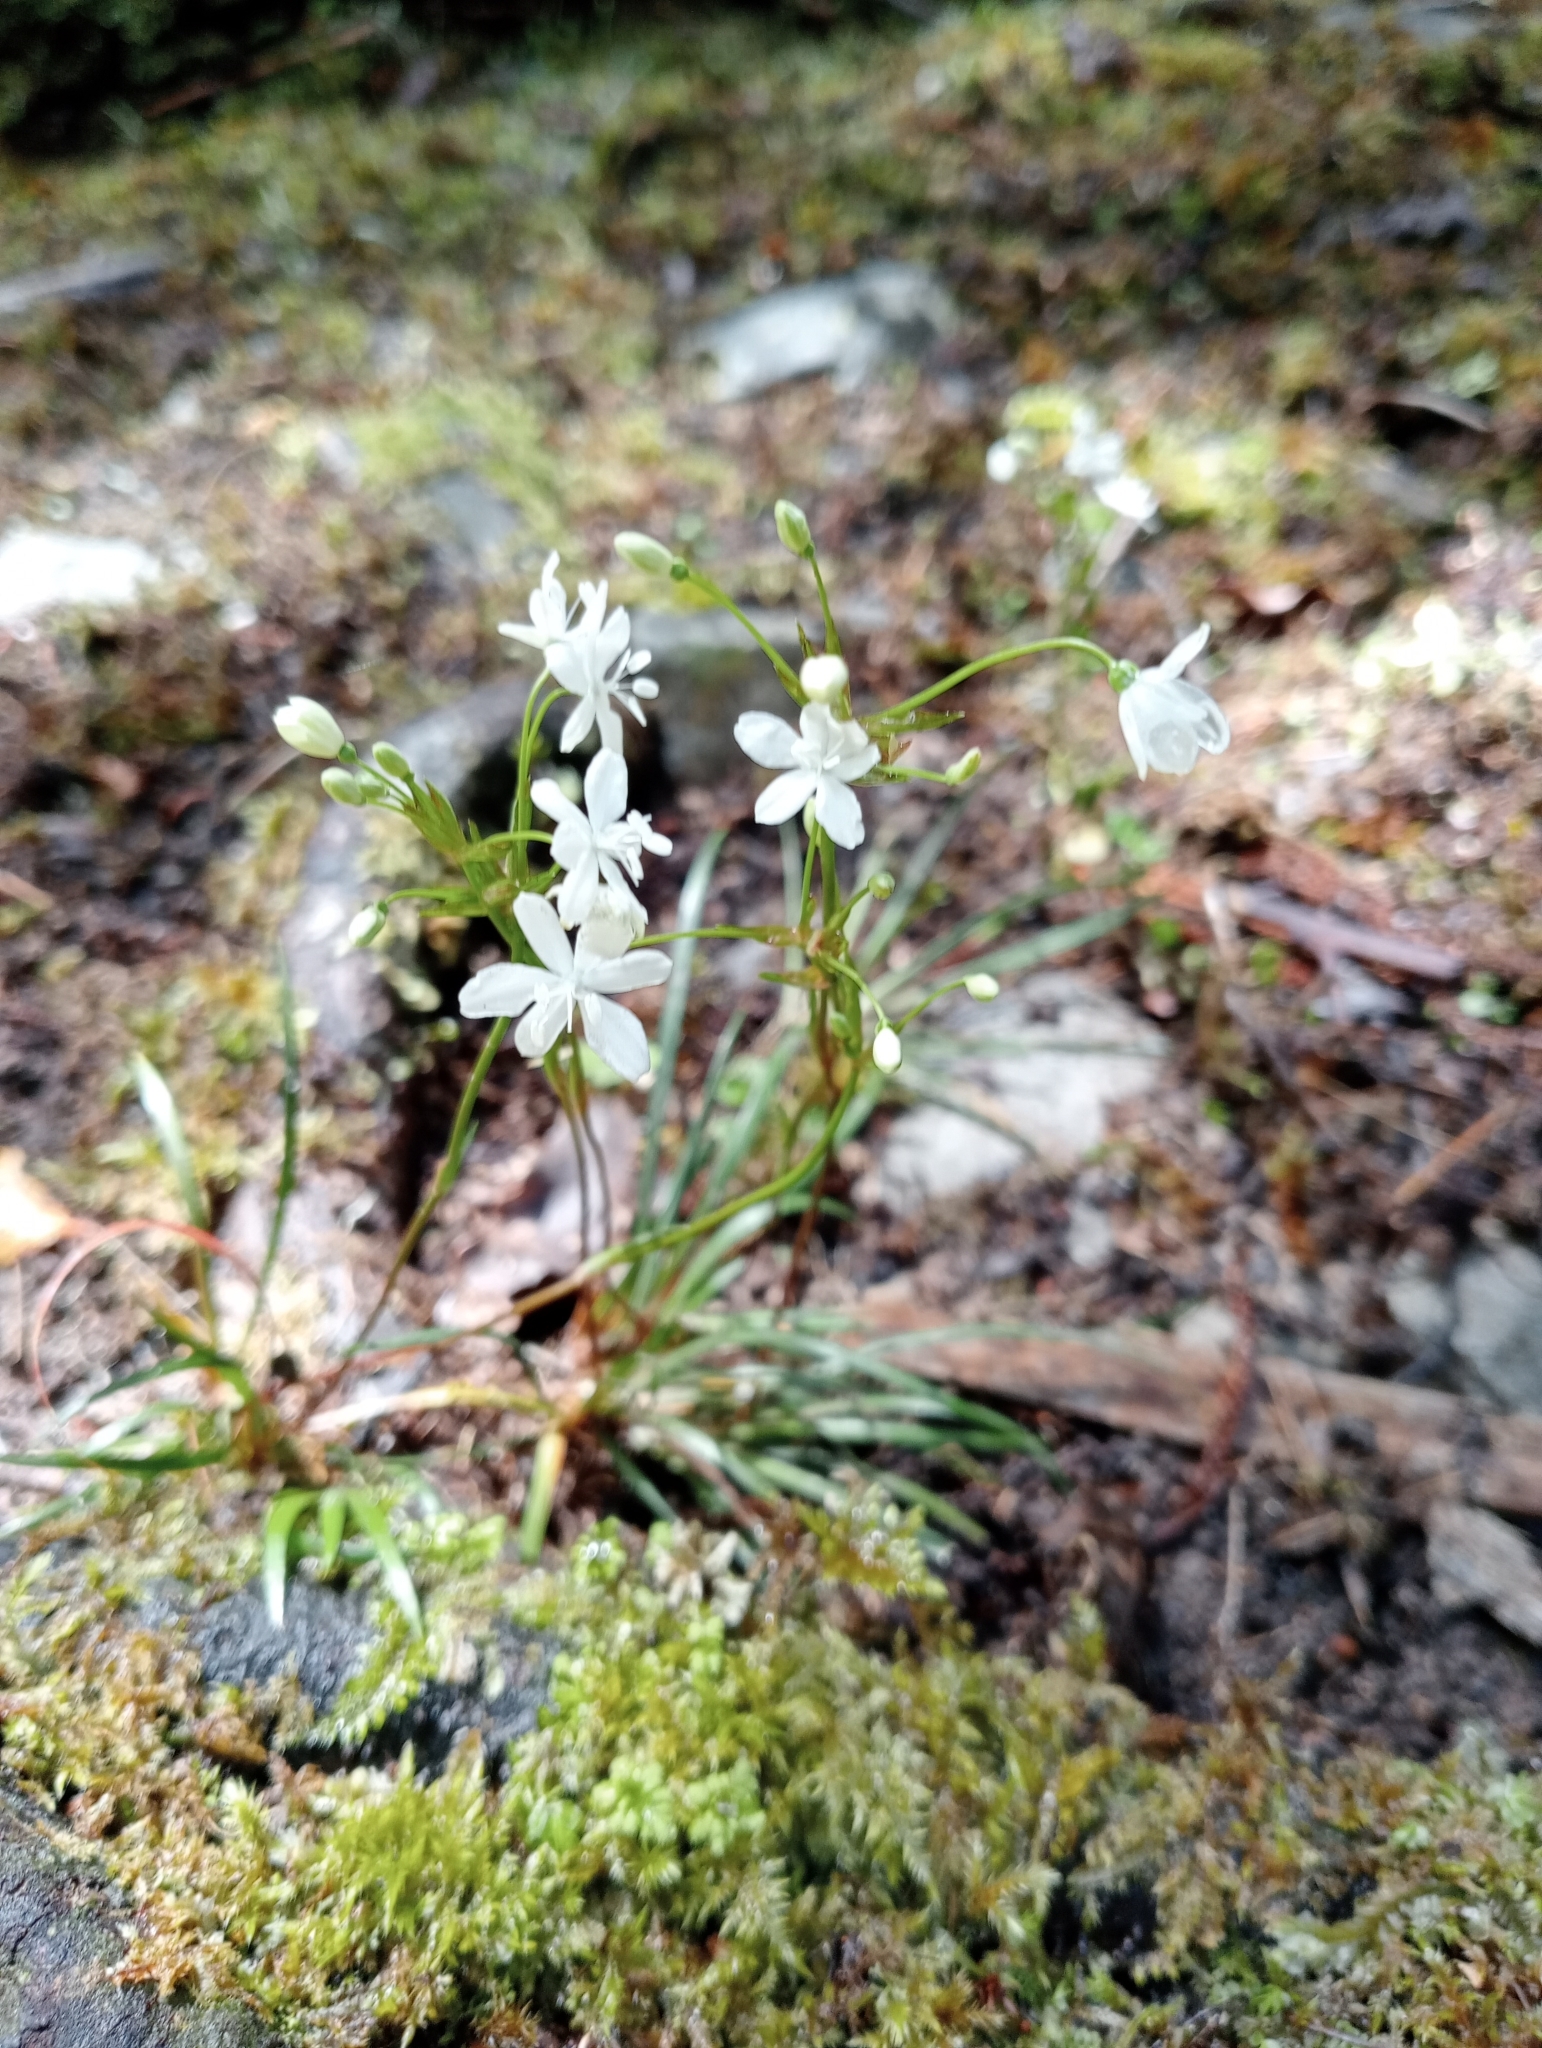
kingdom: Plantae
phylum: Tracheophyta
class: Liliopsida
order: Asparagales
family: Iridaceae
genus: Libertia
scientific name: Libertia micrantha
